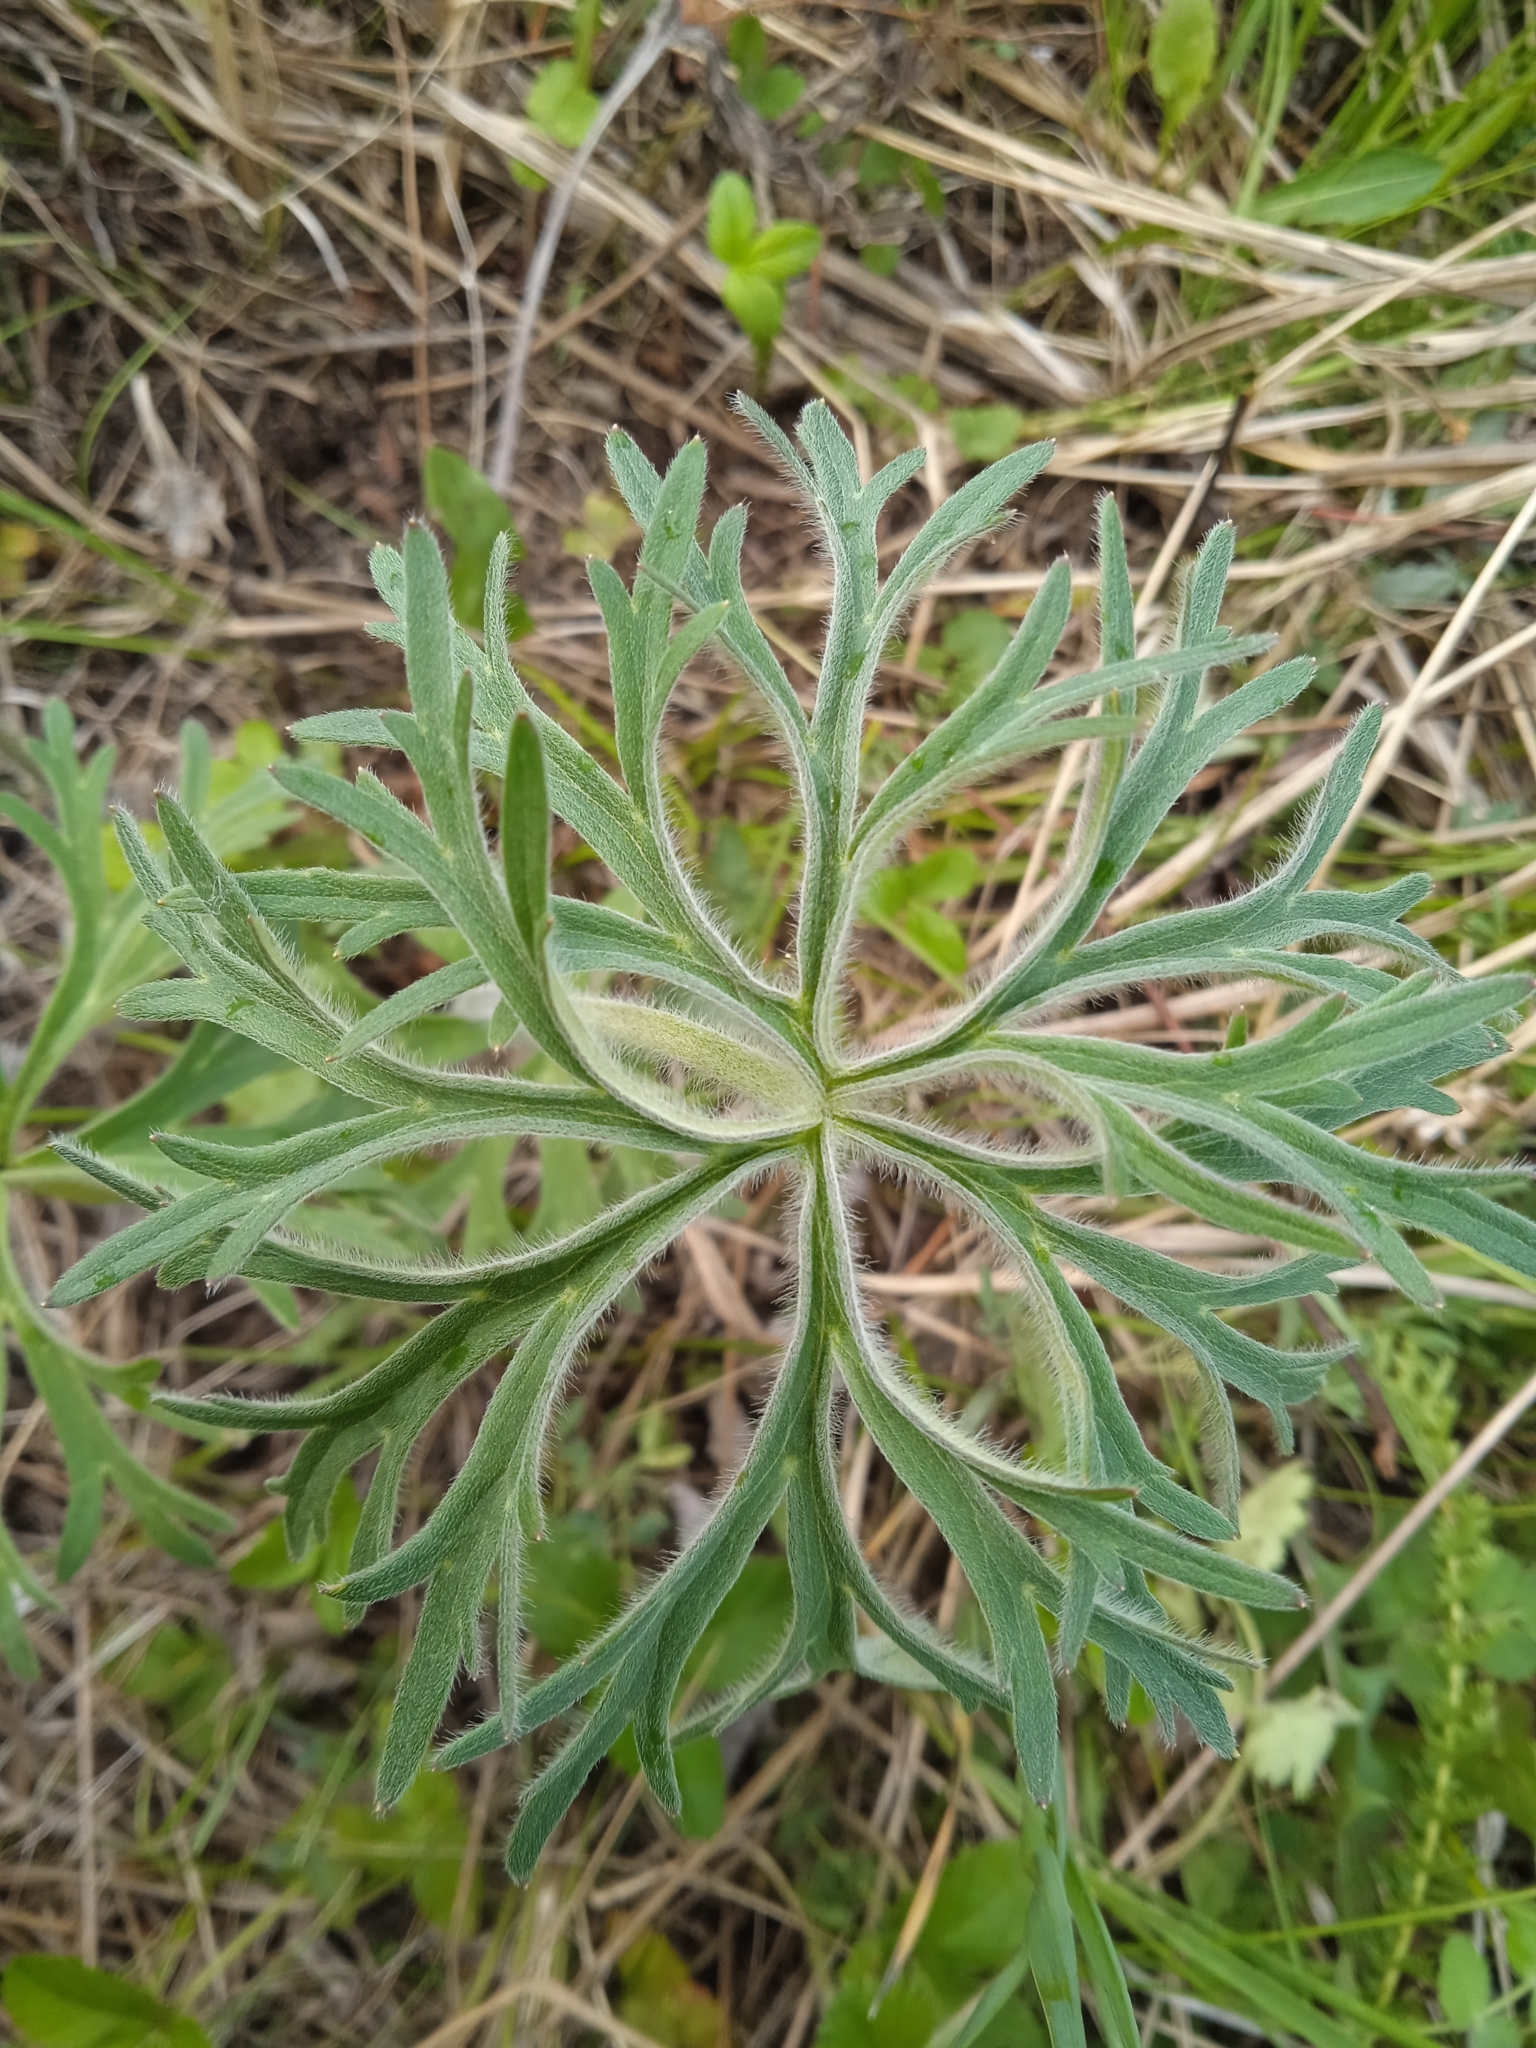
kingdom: Plantae
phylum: Tracheophyta
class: Magnoliopsida
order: Ranunculales
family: Ranunculaceae
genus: Aconitum
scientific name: Aconitum barbatum
